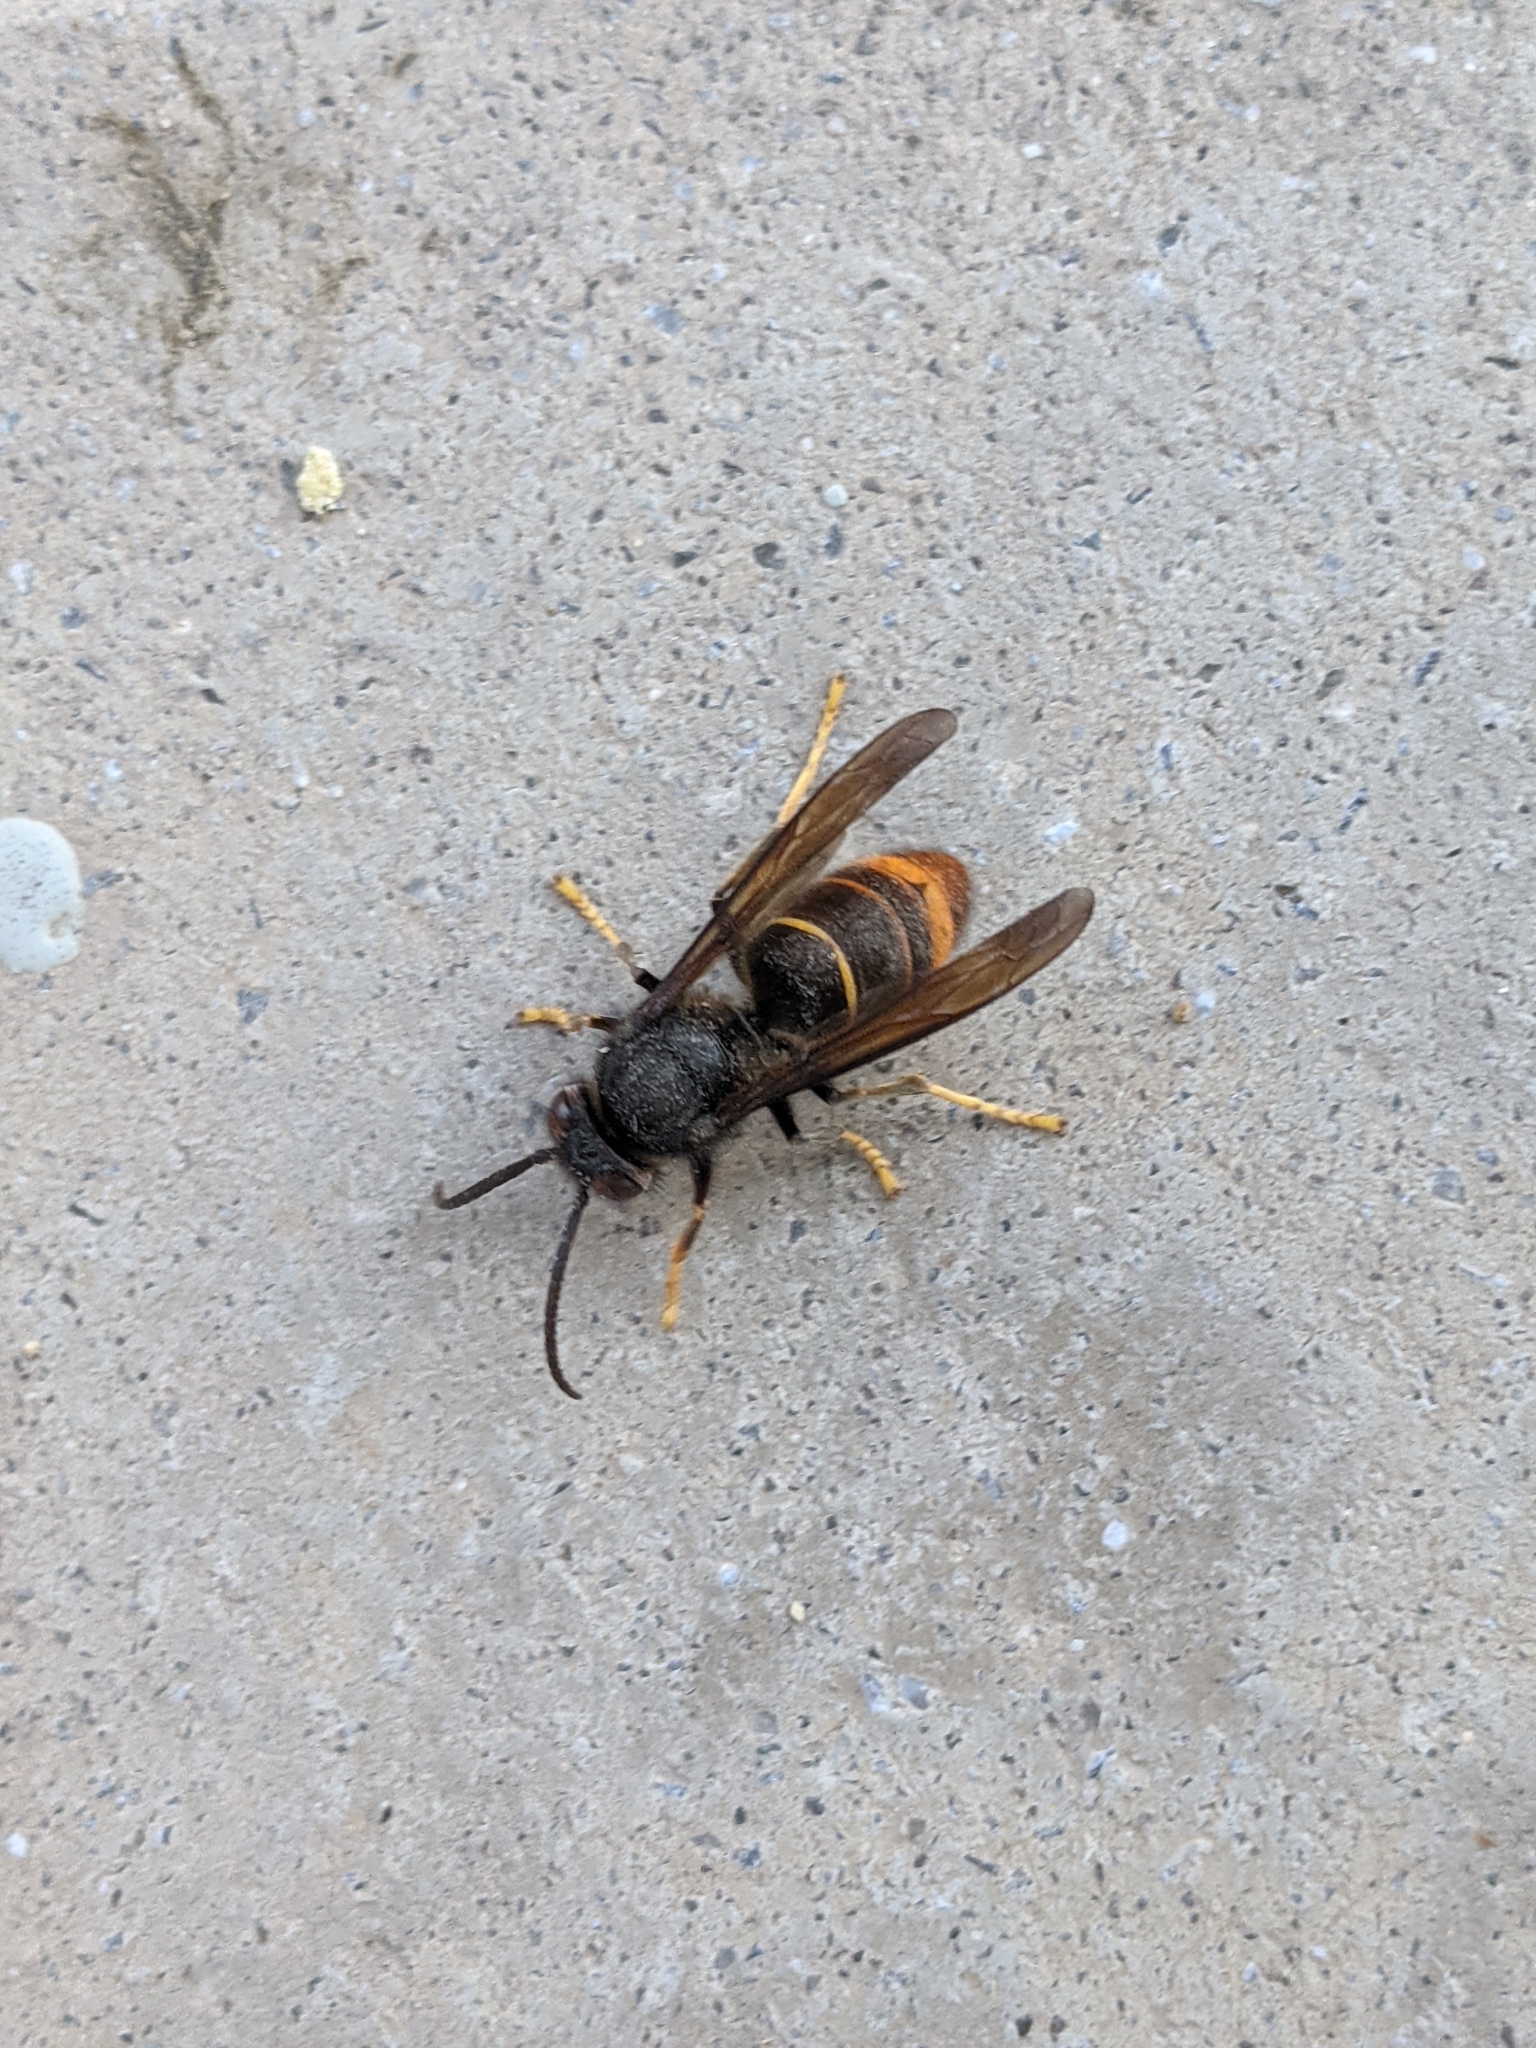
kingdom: Animalia
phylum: Arthropoda
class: Insecta
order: Hymenoptera
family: Vespidae
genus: Vespa
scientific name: Vespa velutina
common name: Asian hornet
